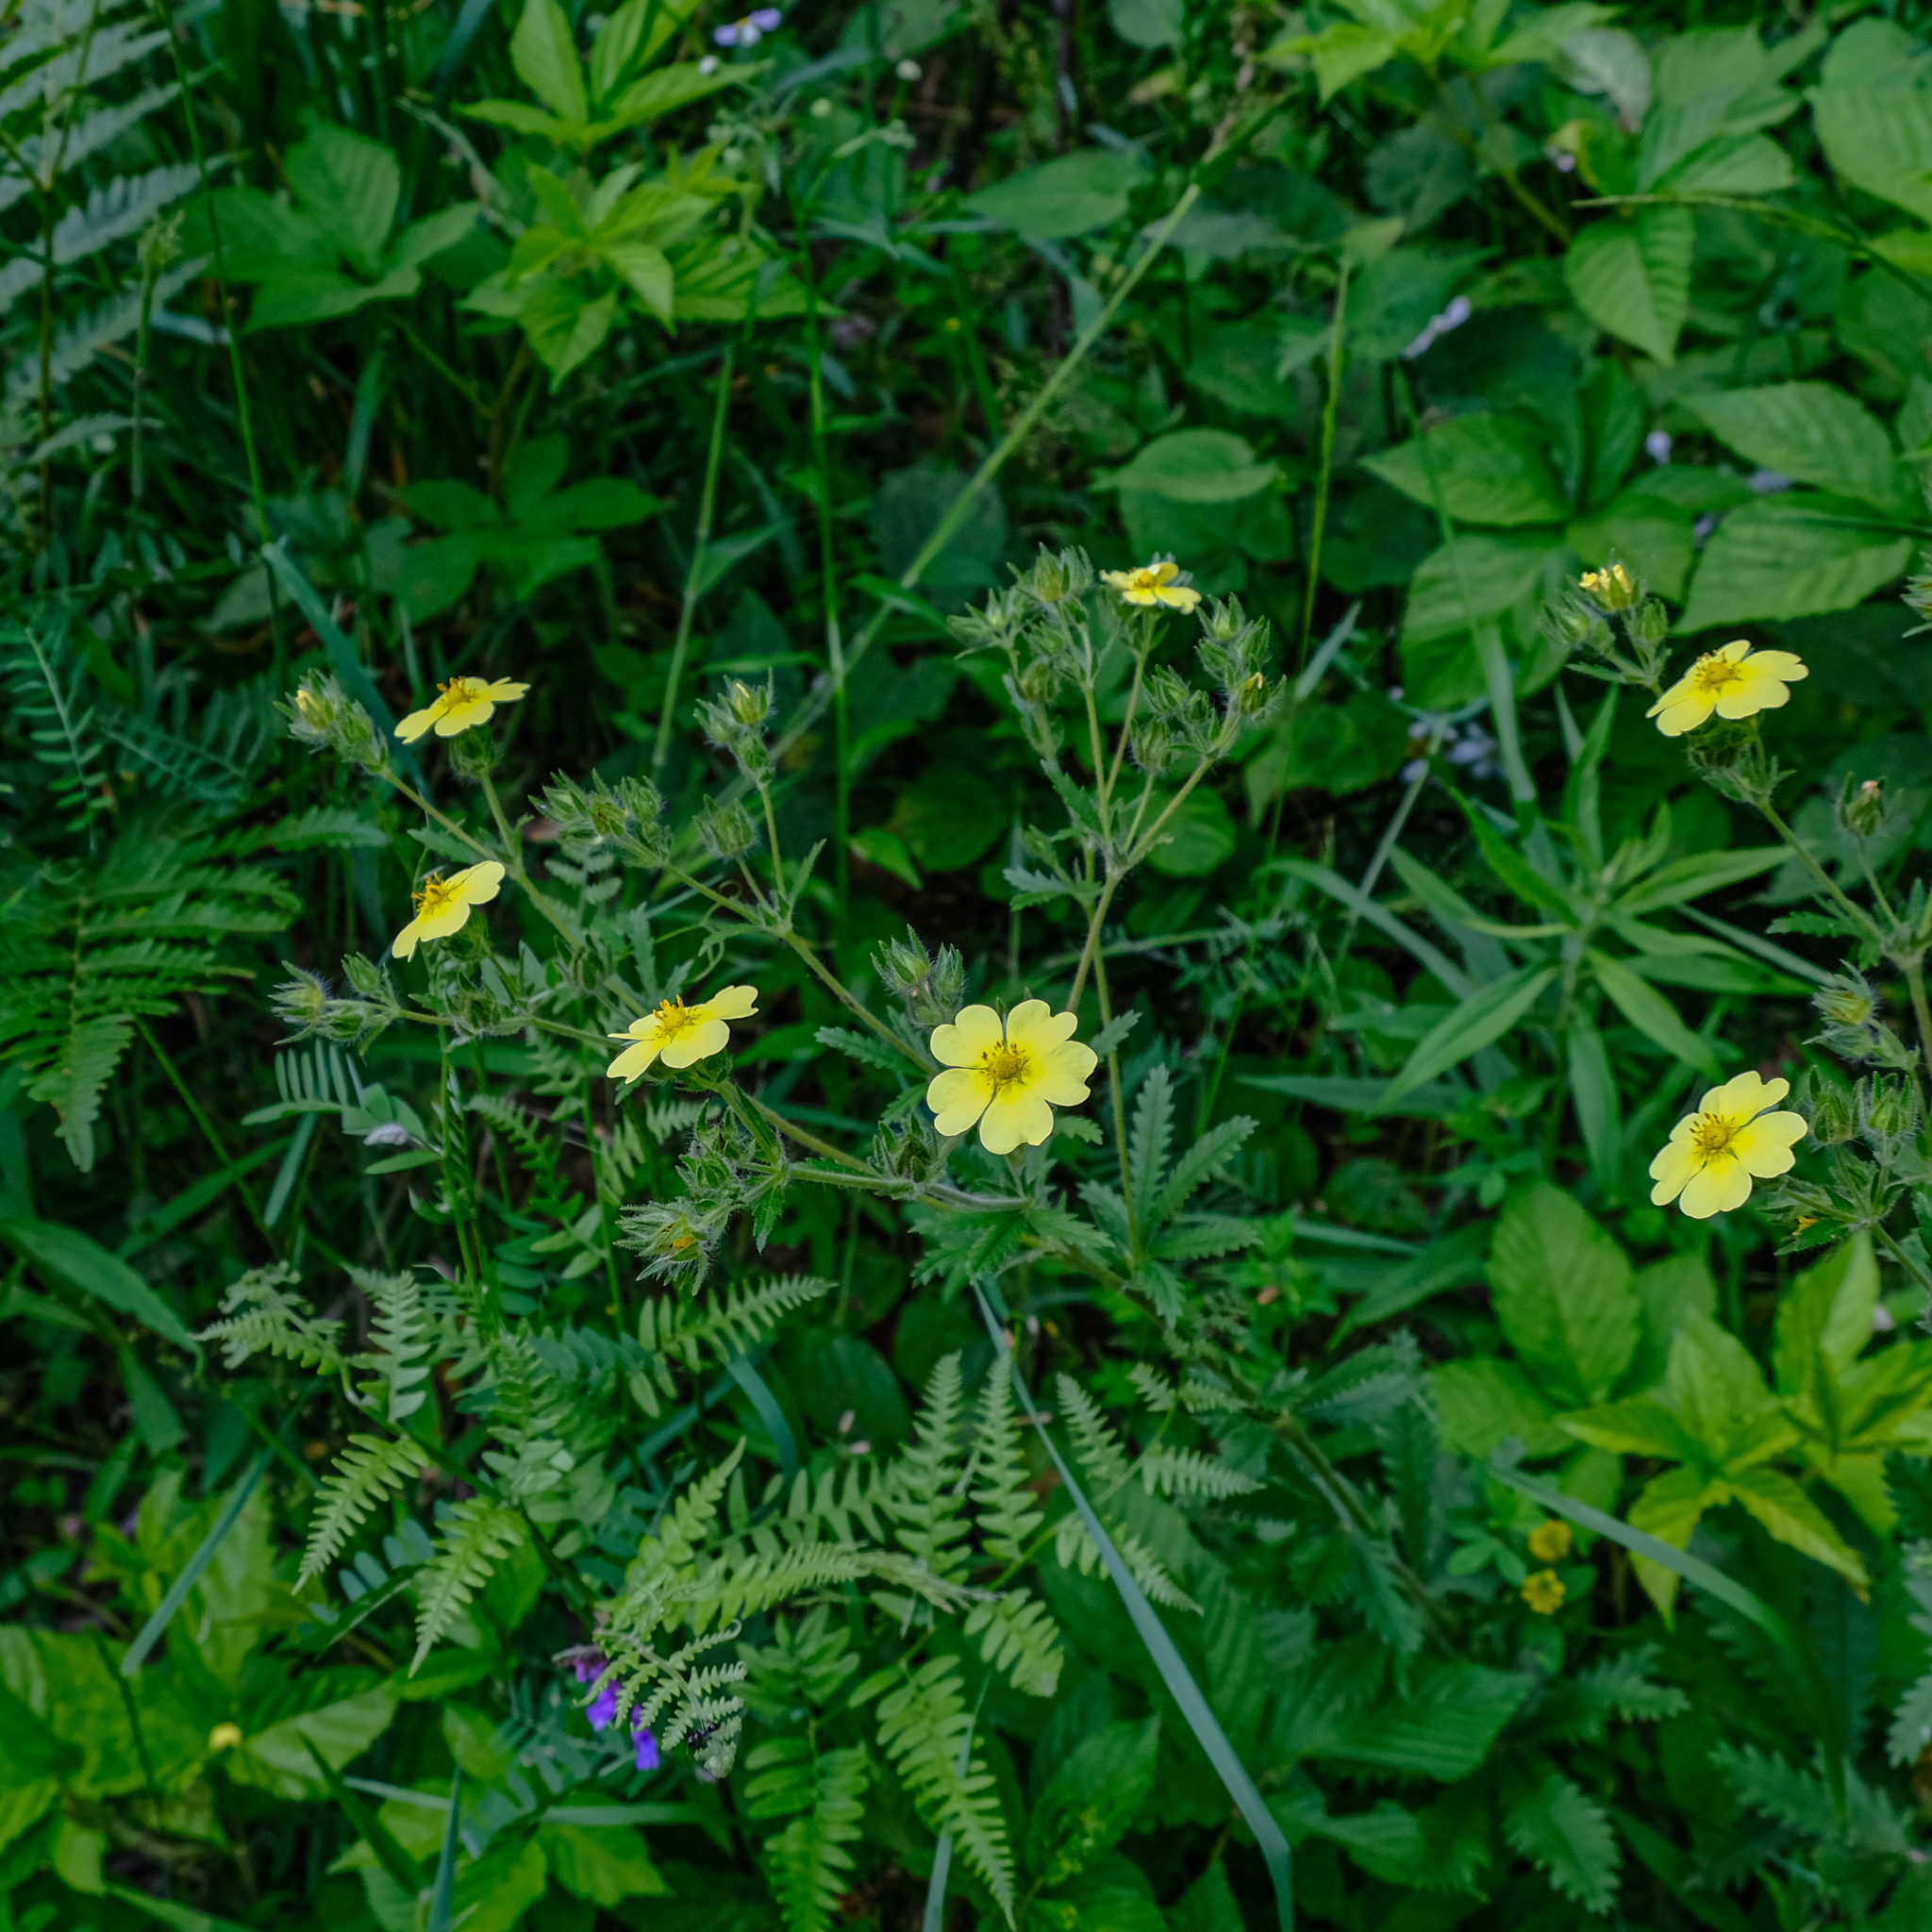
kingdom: Plantae
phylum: Tracheophyta
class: Magnoliopsida
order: Rosales
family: Rosaceae
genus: Potentilla
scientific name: Potentilla recta
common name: Sulphur cinquefoil
